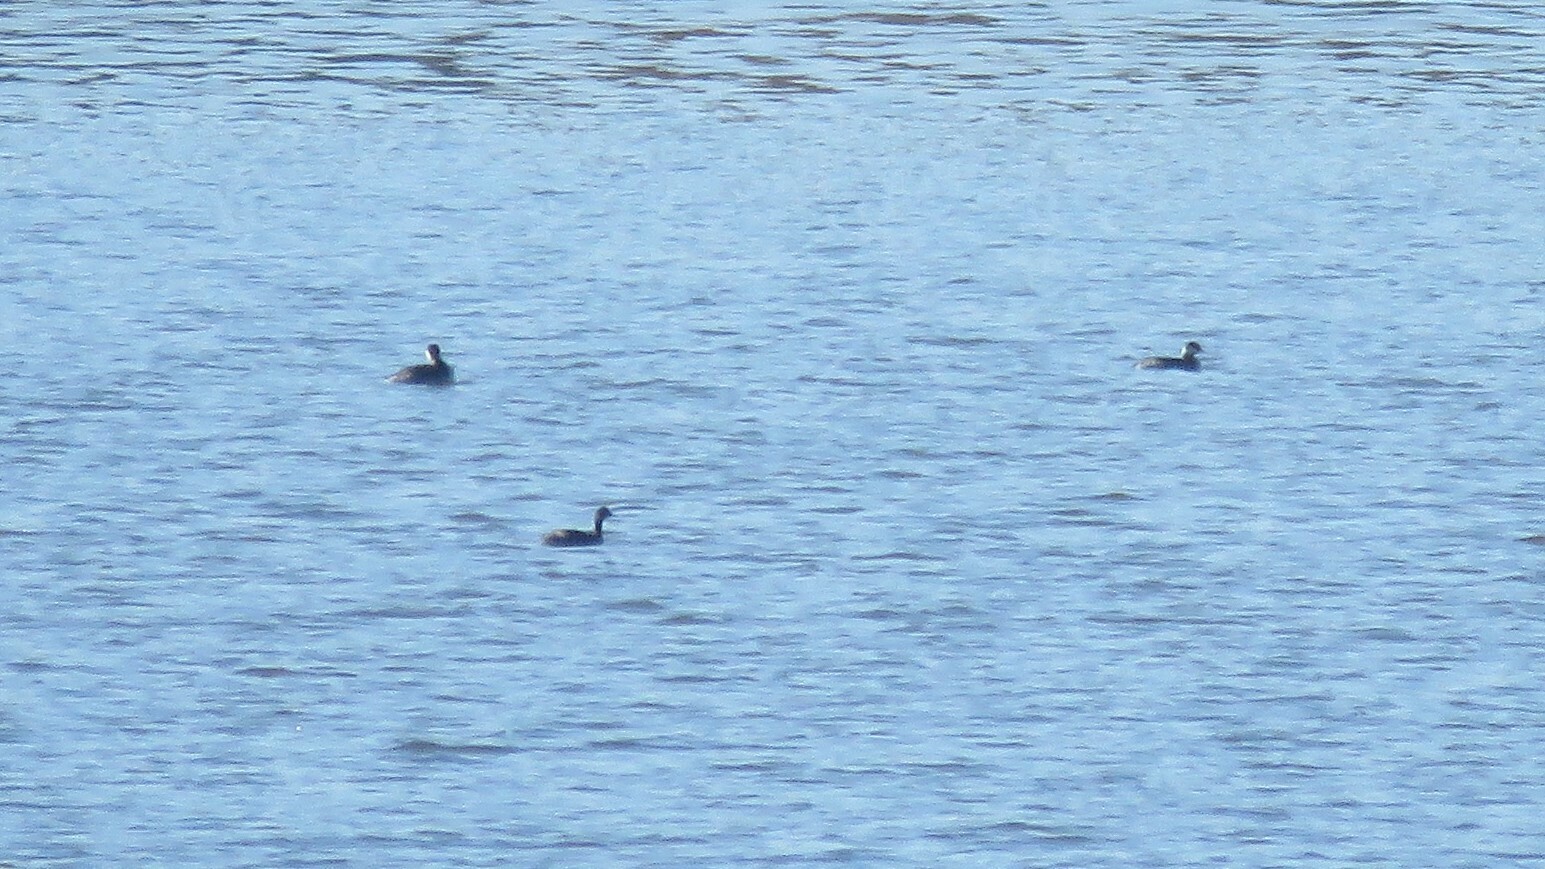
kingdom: Animalia
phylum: Chordata
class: Aves
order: Podicipediformes
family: Podicipedidae
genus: Podiceps
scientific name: Podiceps nigricollis
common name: Black-necked grebe
